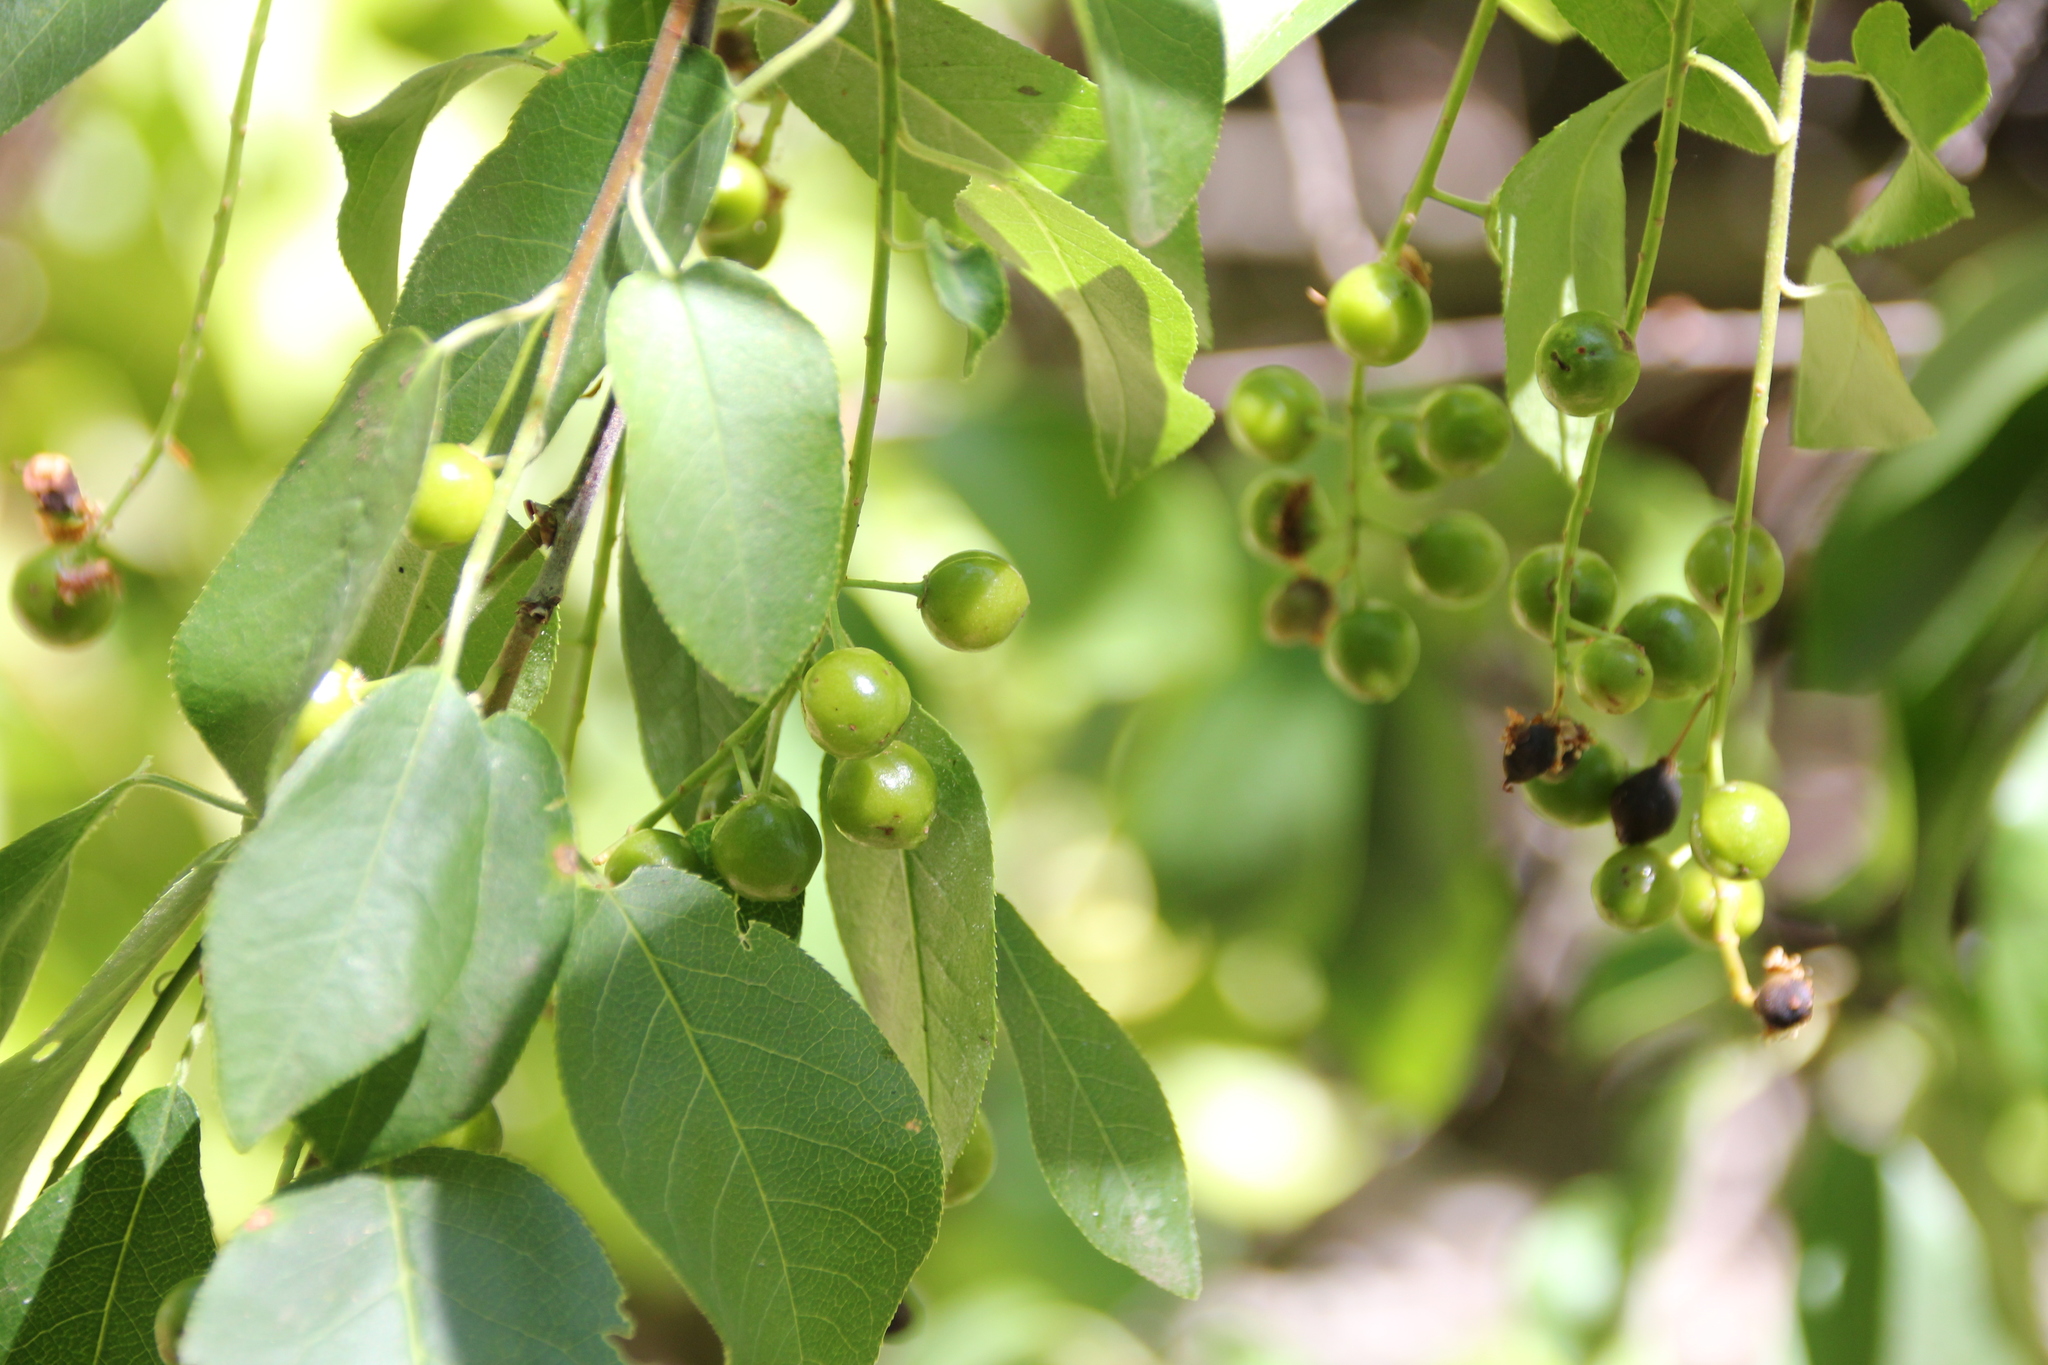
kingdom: Plantae
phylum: Tracheophyta
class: Magnoliopsida
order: Rosales
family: Rosaceae
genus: Prunus
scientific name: Prunus virginiana
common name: Chokecherry
